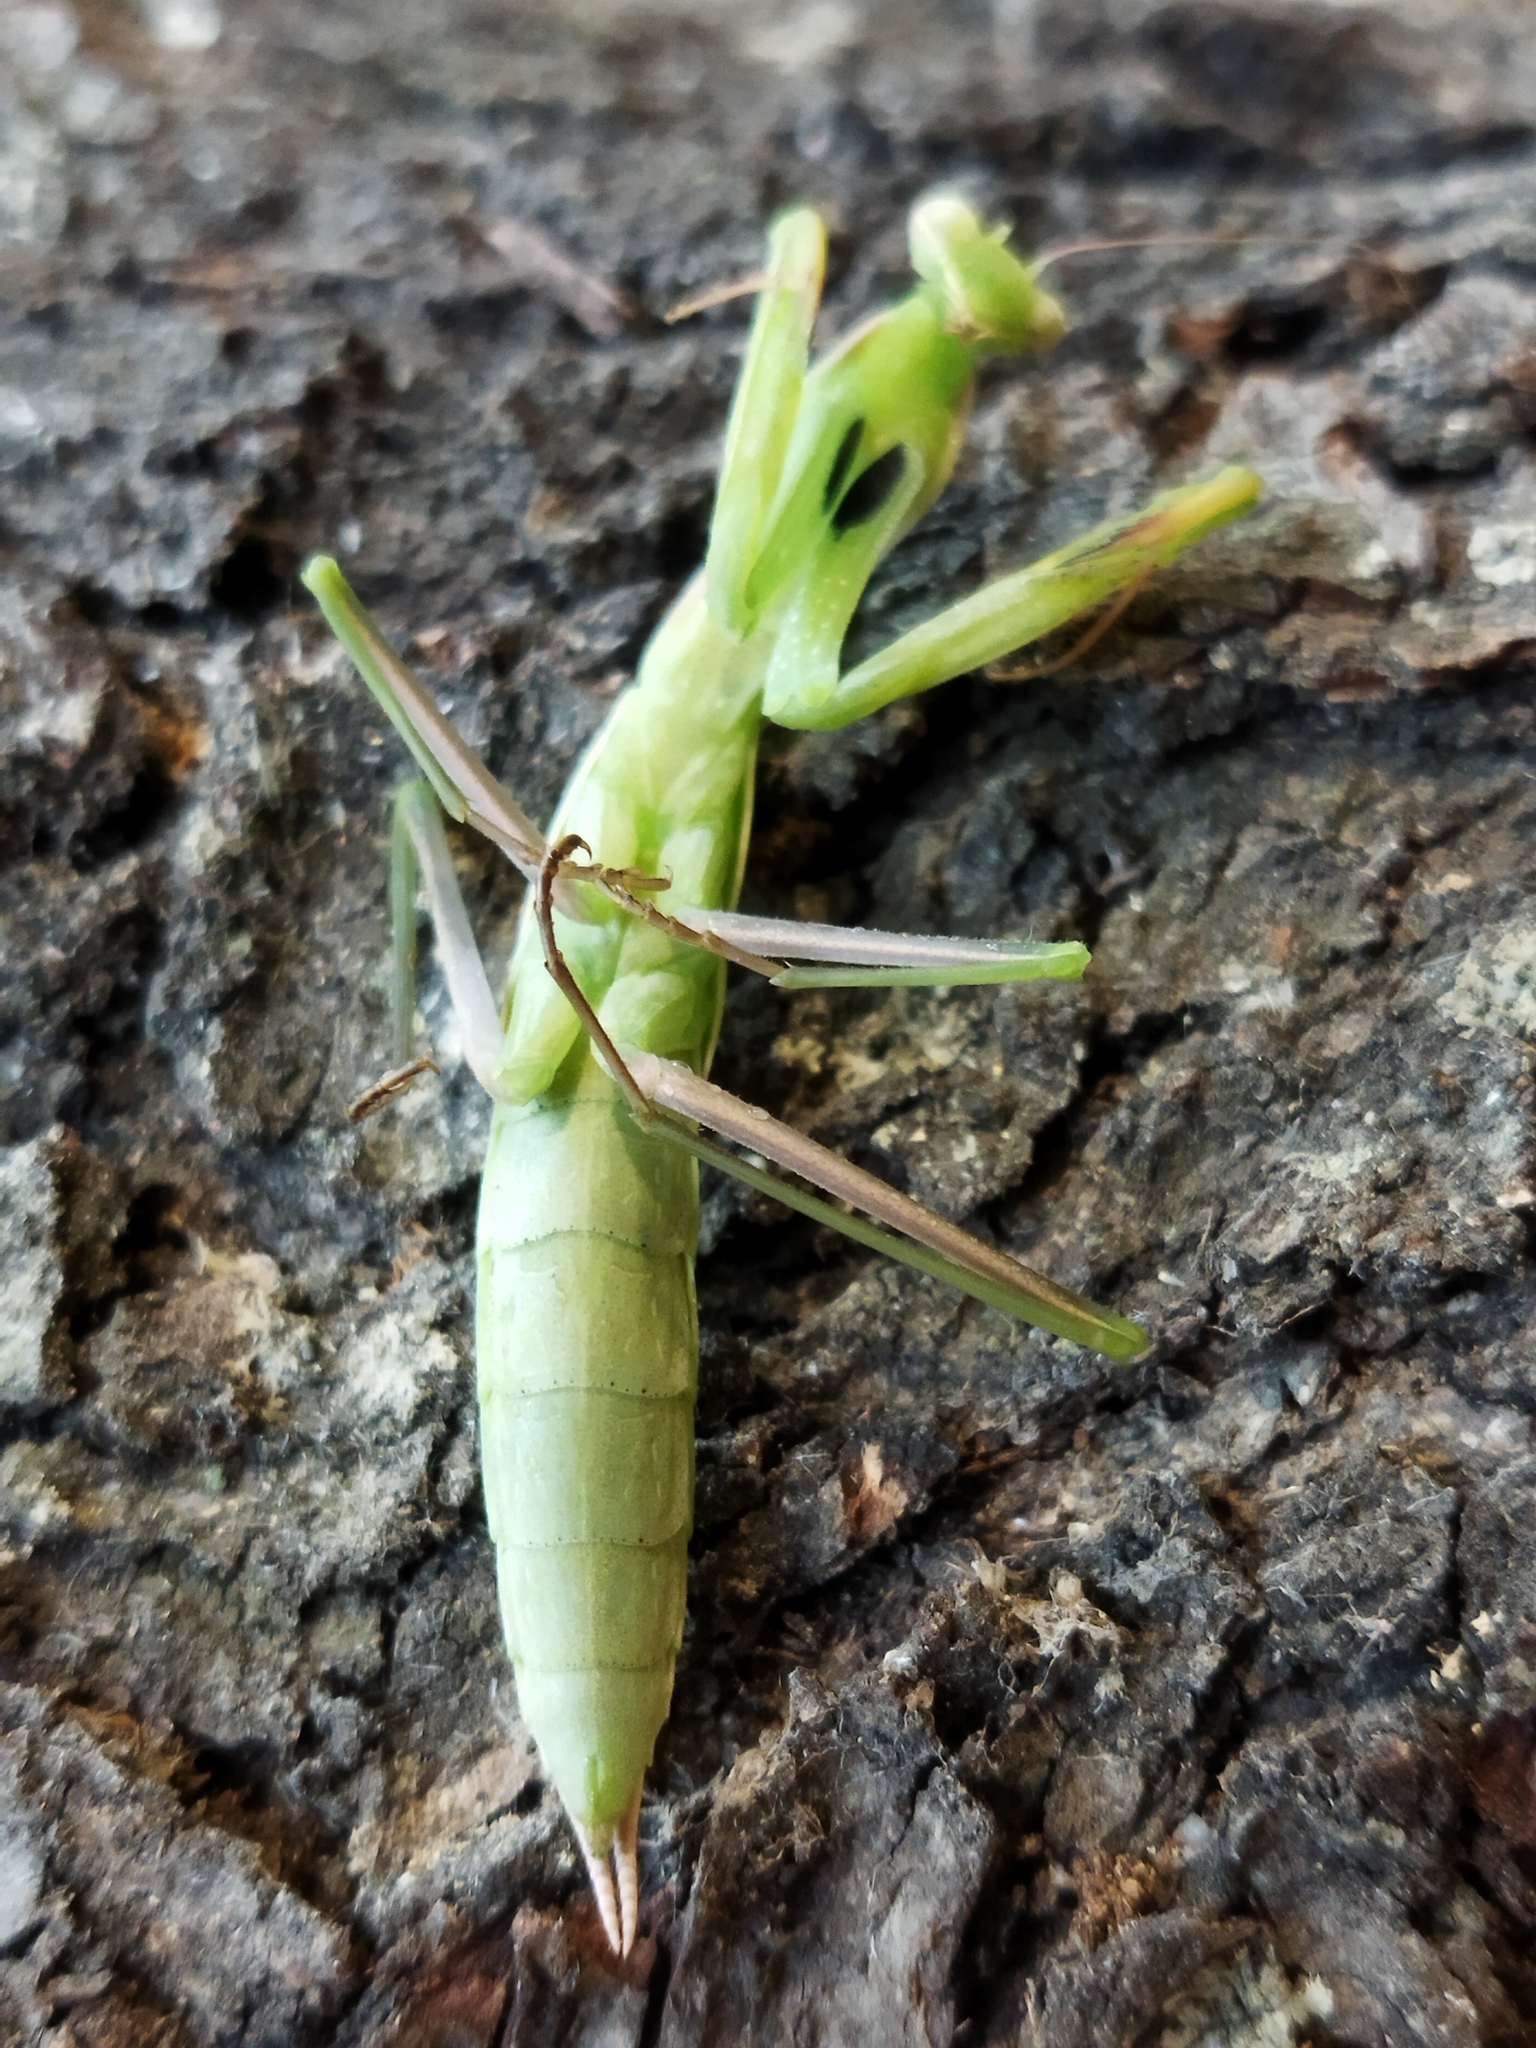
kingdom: Animalia
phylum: Arthropoda
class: Insecta
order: Mantodea
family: Mantidae
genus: Mantis
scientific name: Mantis religiosa
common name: Praying mantis
